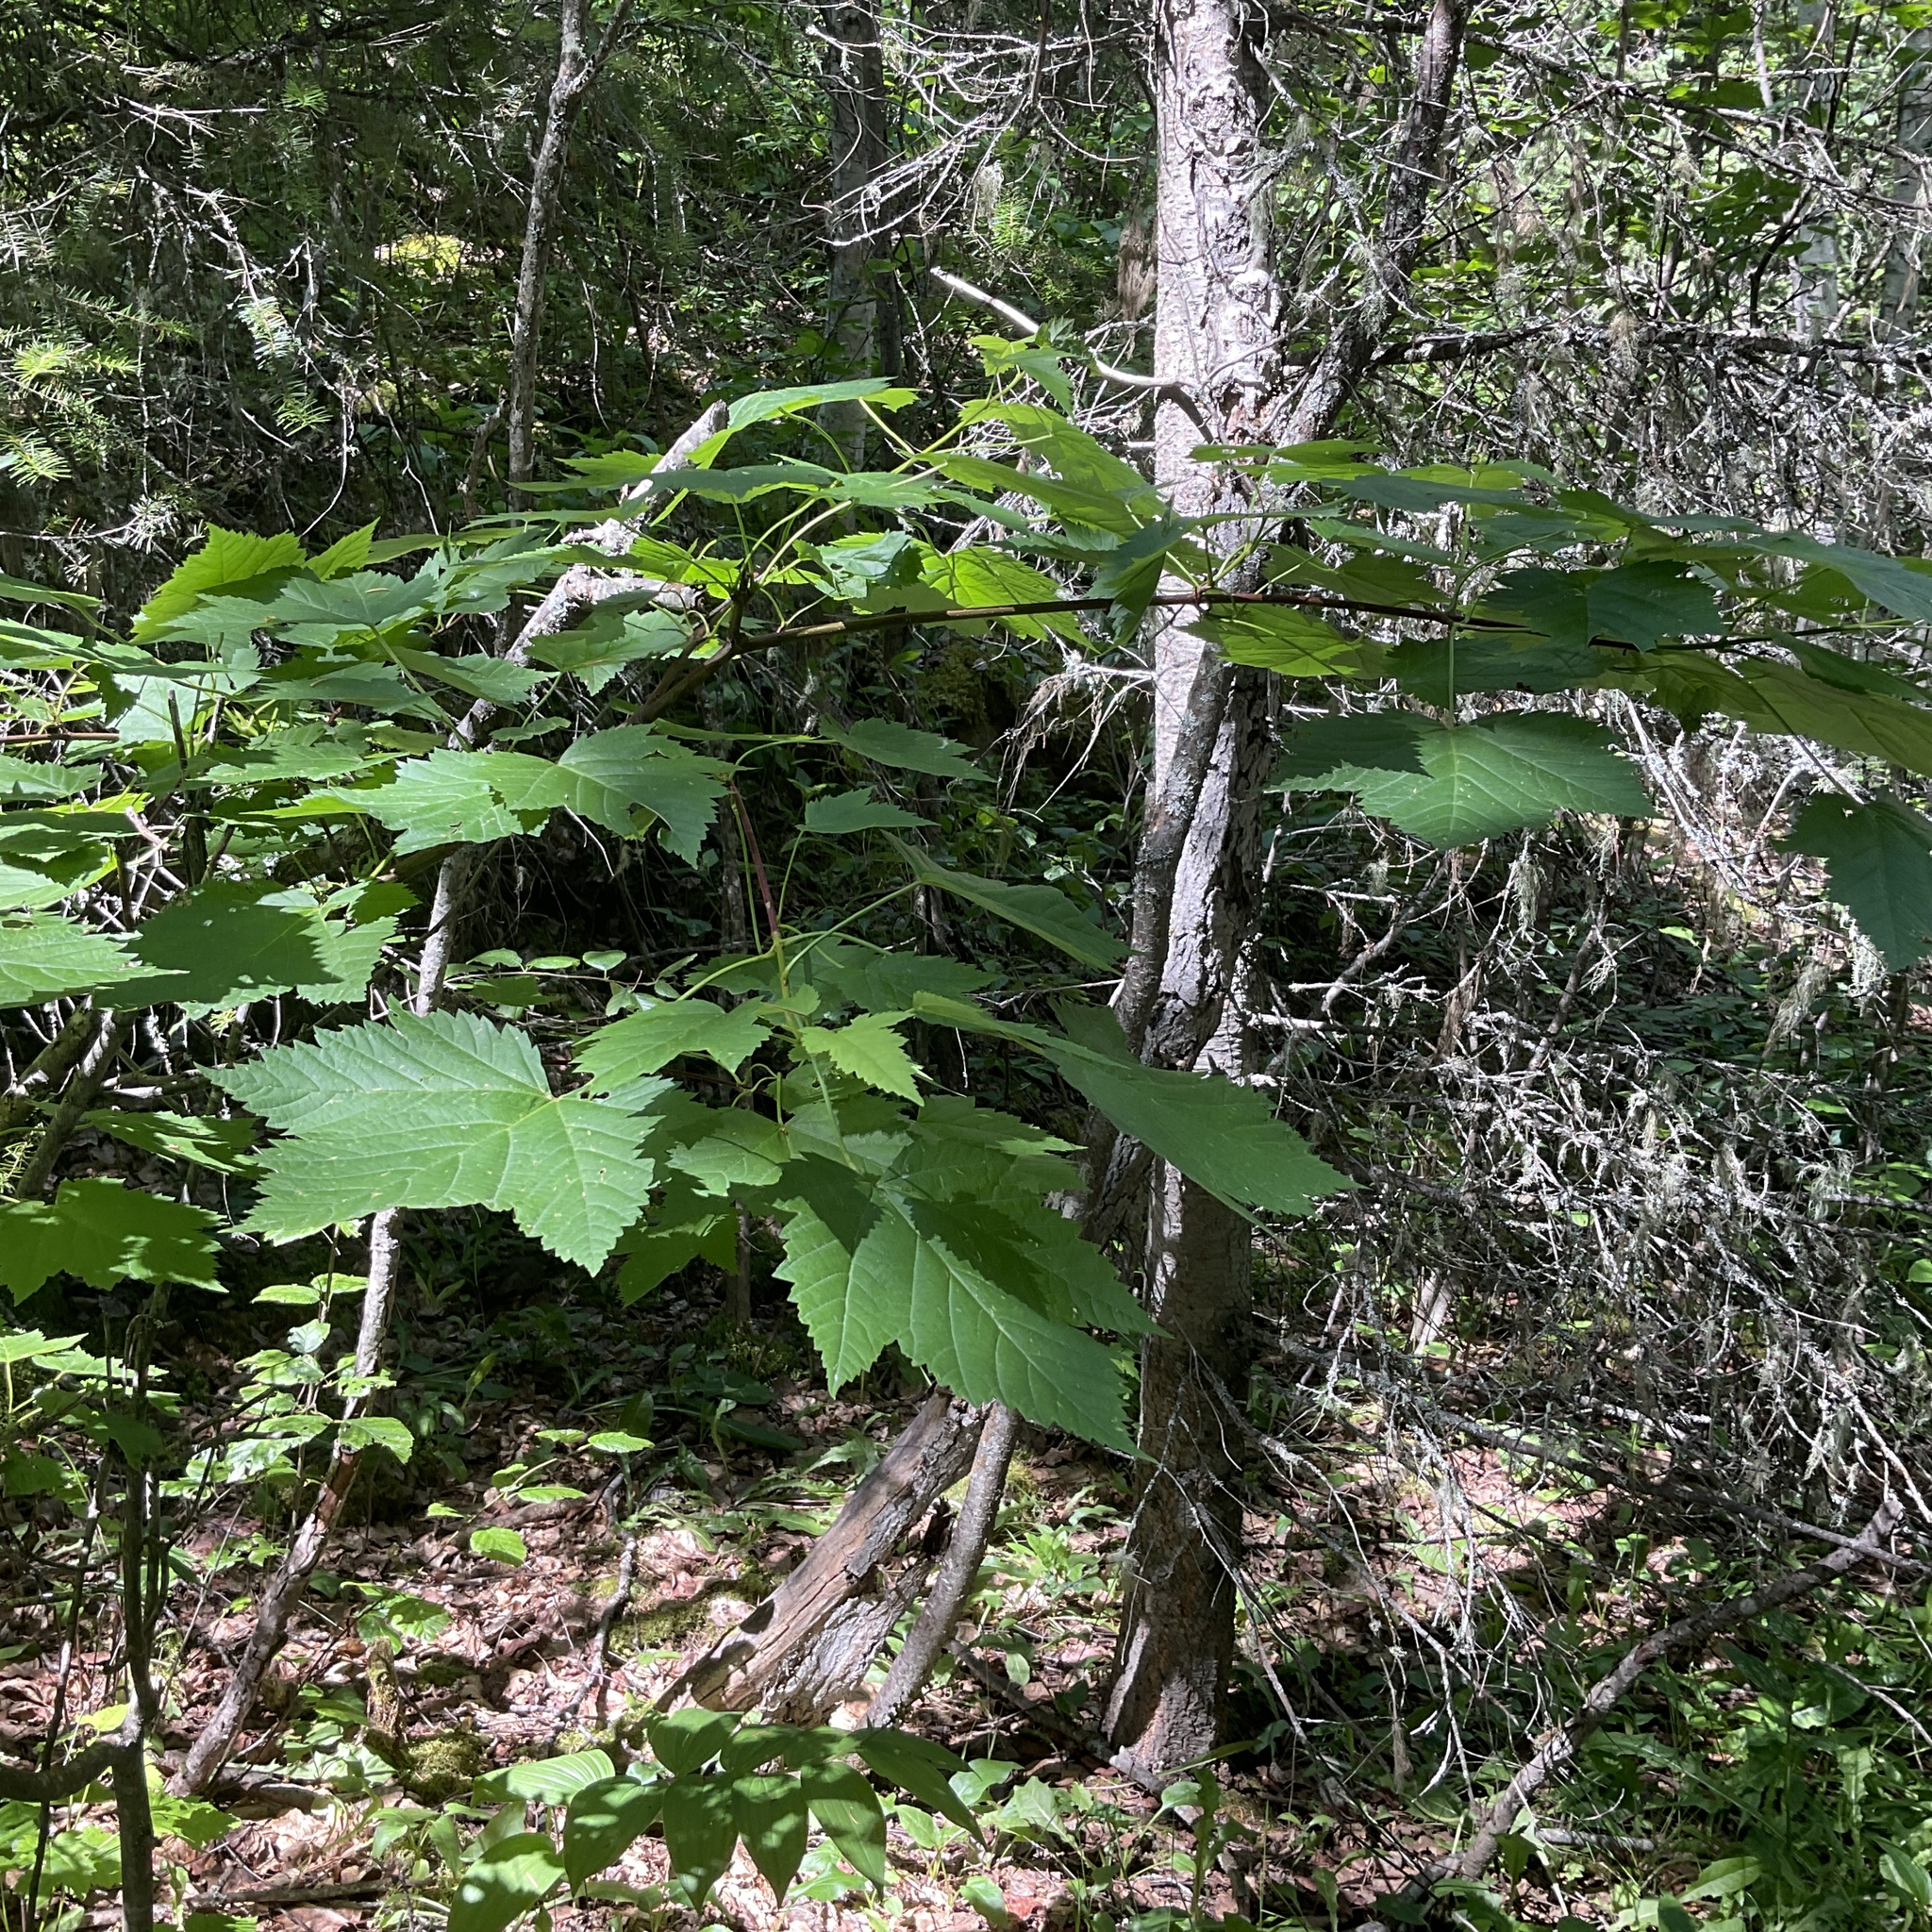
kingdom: Plantae
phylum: Tracheophyta
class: Magnoliopsida
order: Sapindales
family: Sapindaceae
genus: Acer
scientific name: Acer glabrum
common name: Rocky mountain maple
